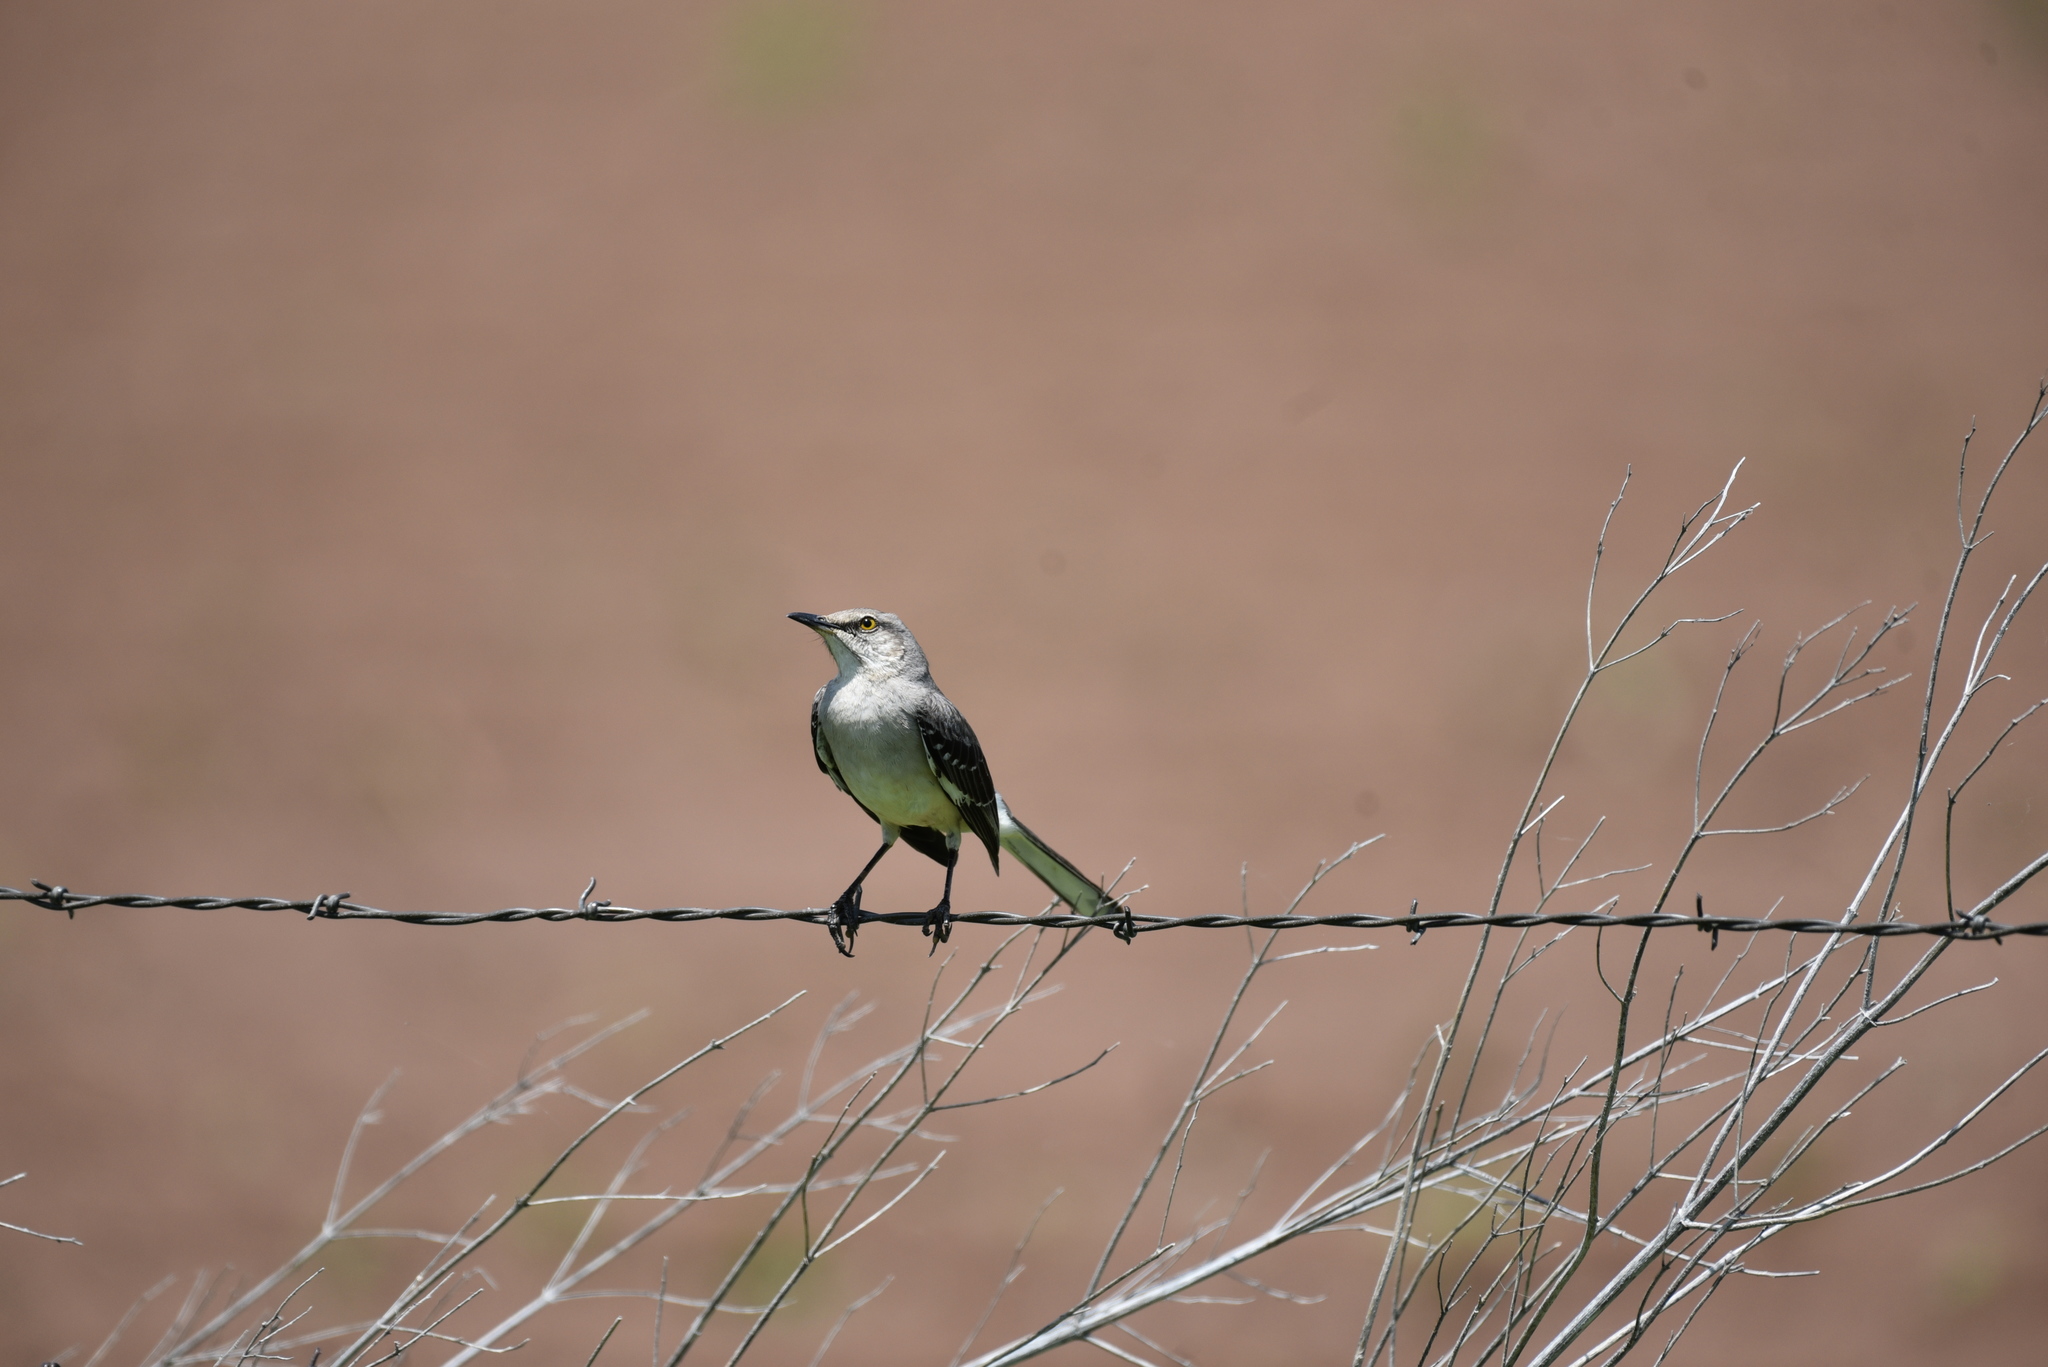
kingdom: Animalia
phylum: Chordata
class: Aves
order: Passeriformes
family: Mimidae
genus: Mimus
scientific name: Mimus polyglottos
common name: Northern mockingbird
